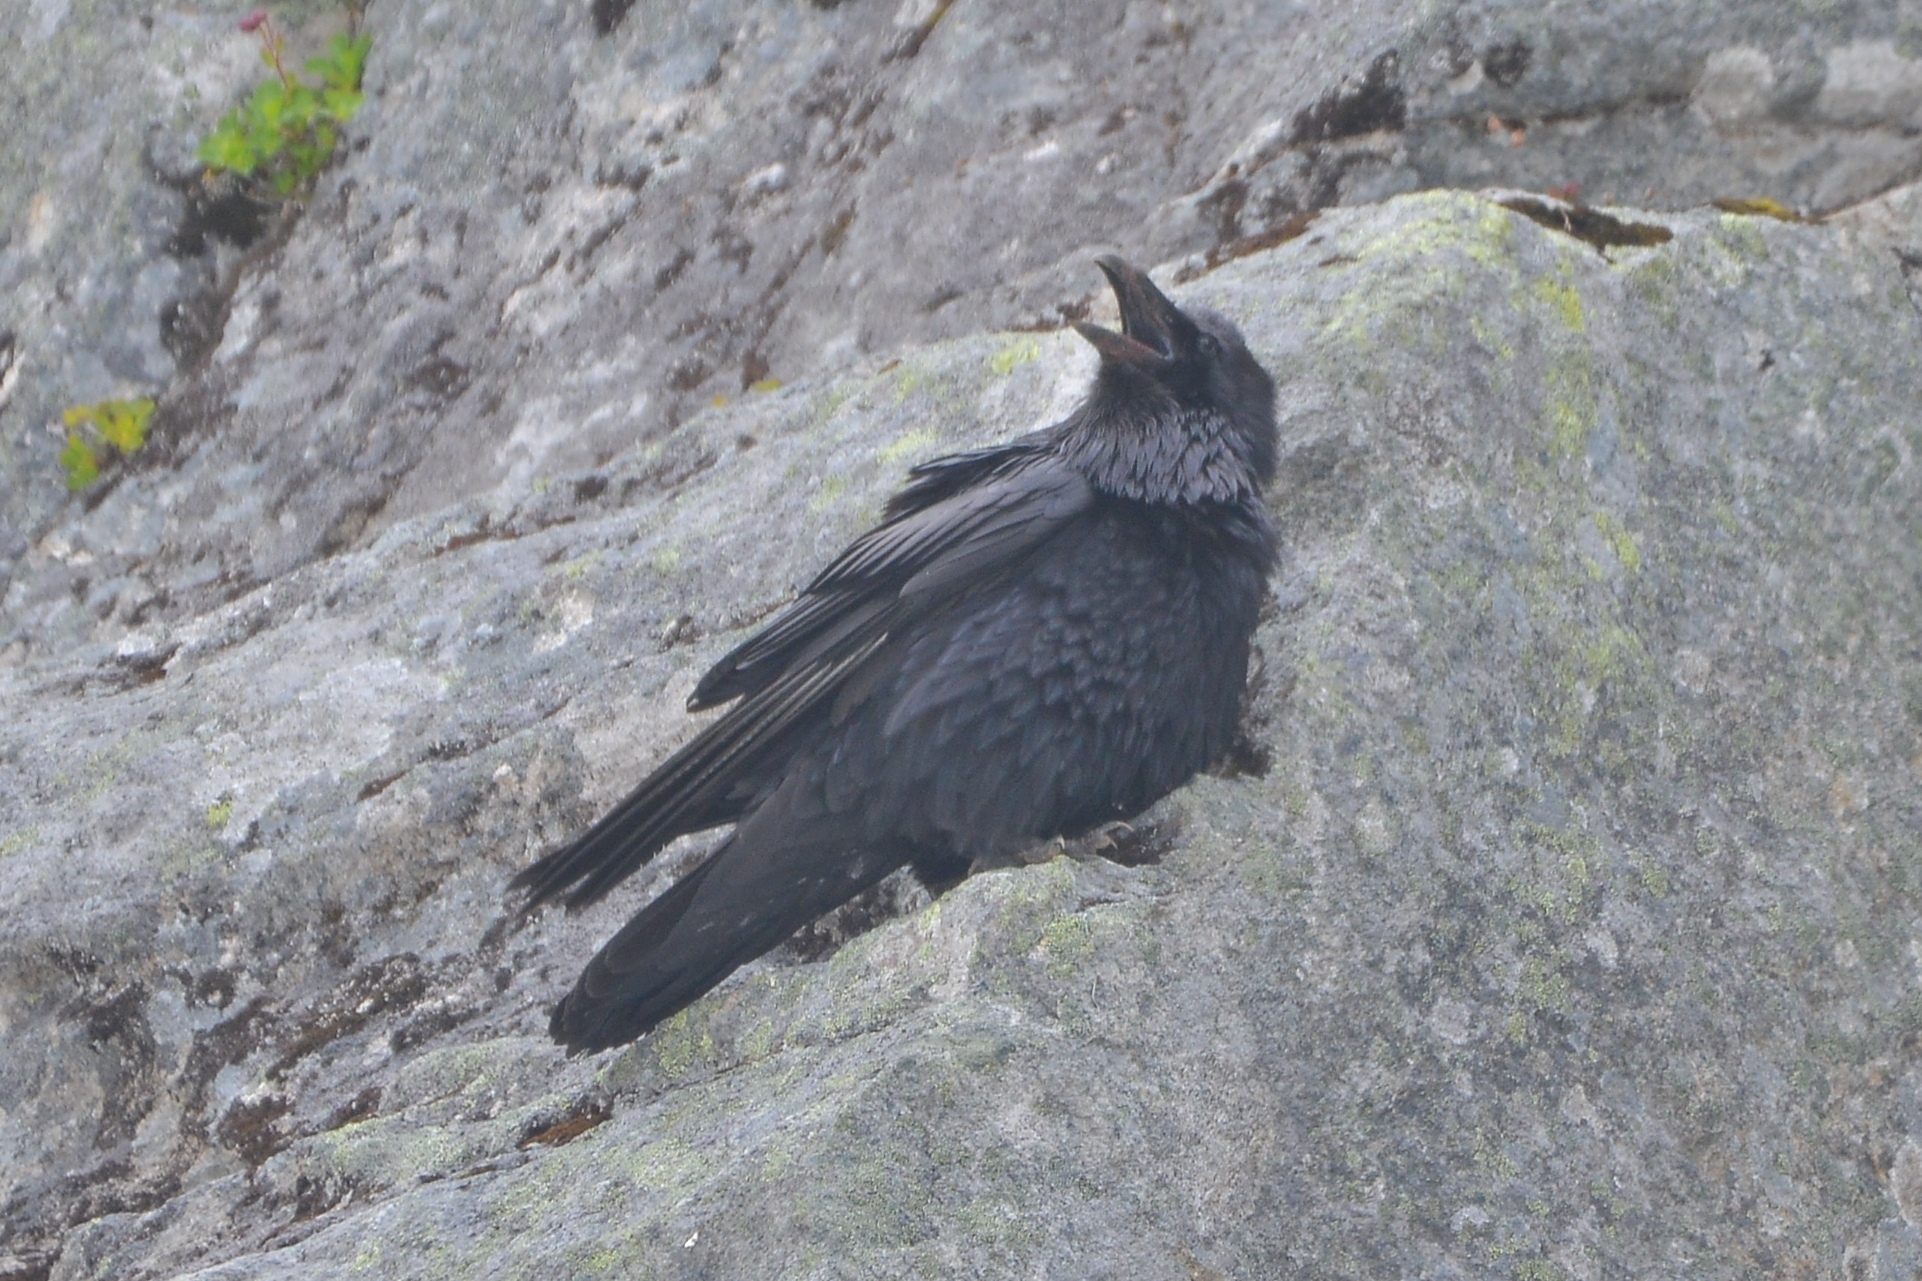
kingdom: Animalia
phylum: Chordata
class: Aves
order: Passeriformes
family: Corvidae
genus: Corvus
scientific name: Corvus corax
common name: Common raven
